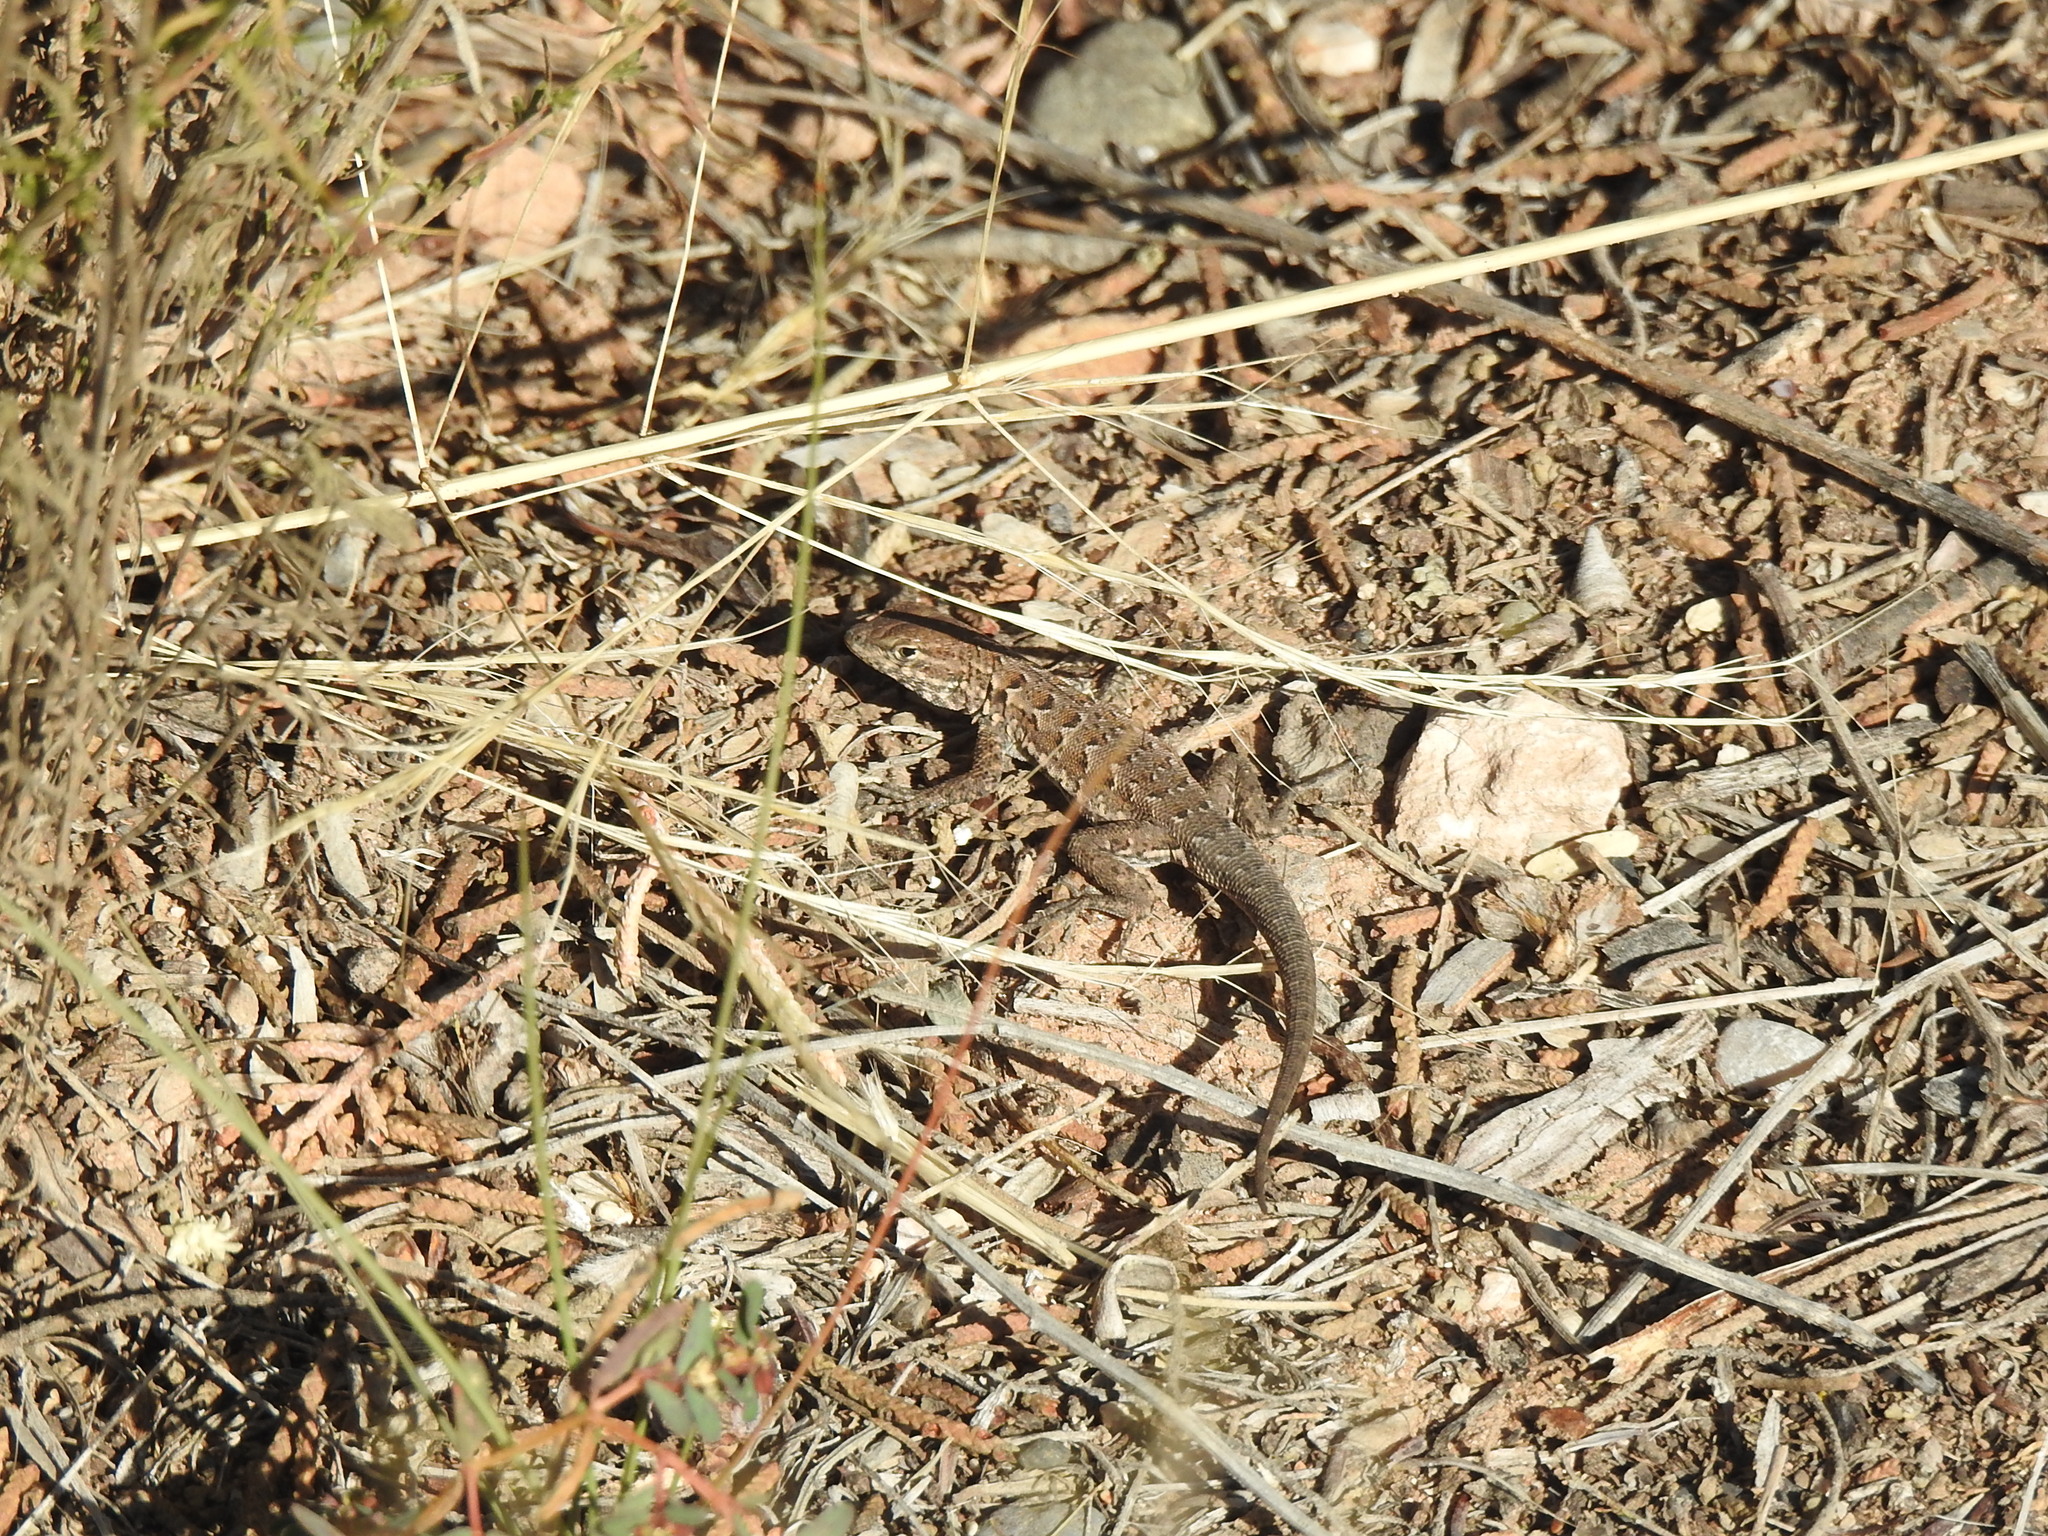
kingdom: Animalia
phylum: Chordata
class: Squamata
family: Phrynosomatidae
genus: Uta
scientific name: Uta stansburiana
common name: Side-blotched lizard
